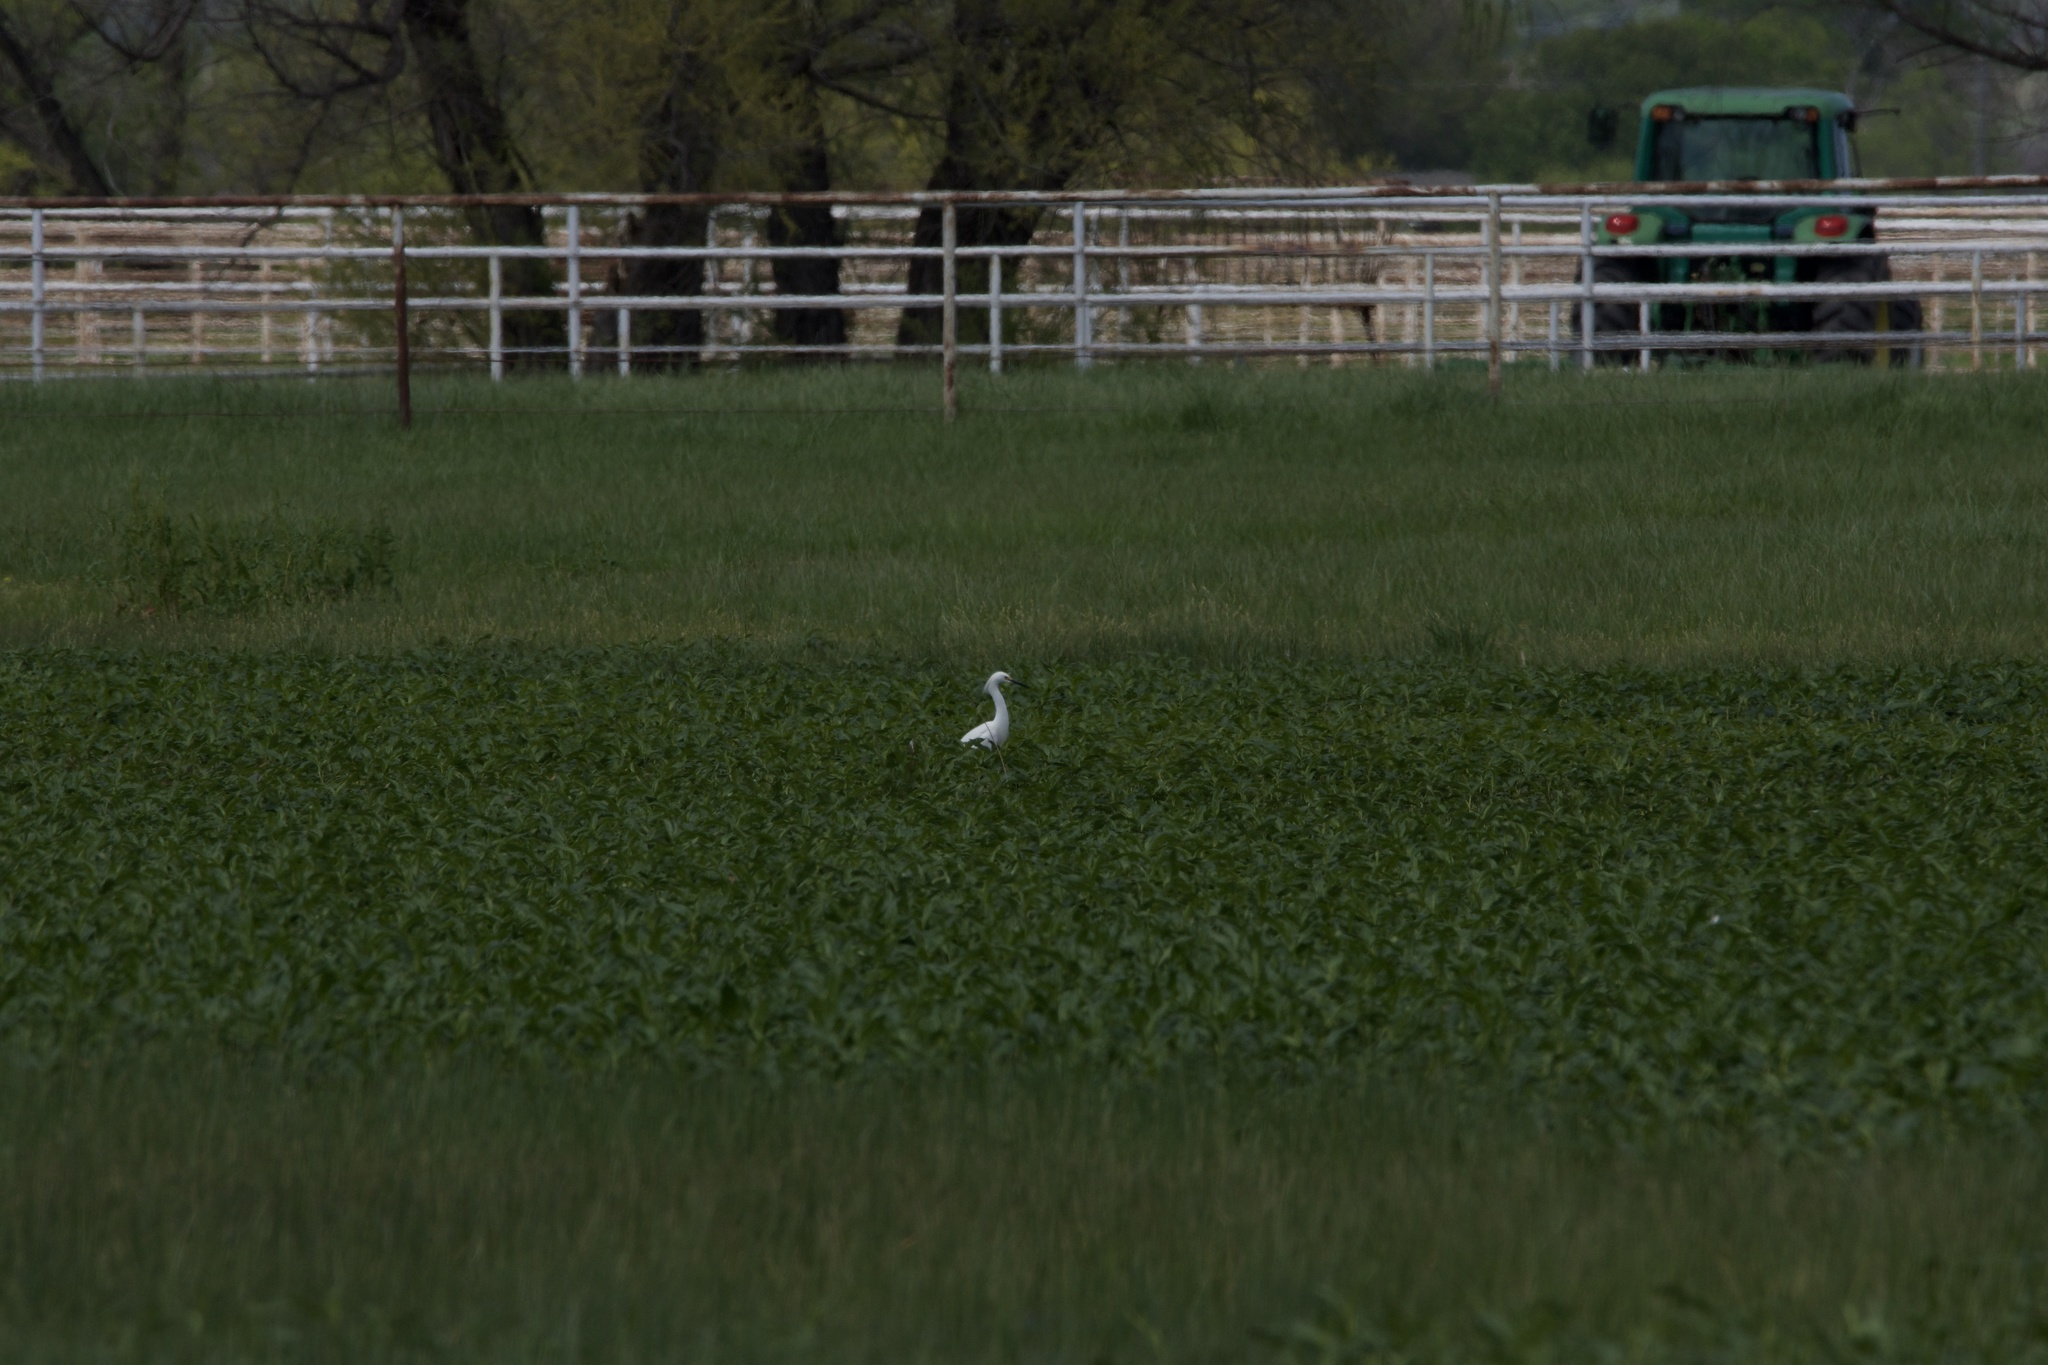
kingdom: Animalia
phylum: Chordata
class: Aves
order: Pelecaniformes
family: Ardeidae
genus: Egretta
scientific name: Egretta thula
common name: Snowy egret
